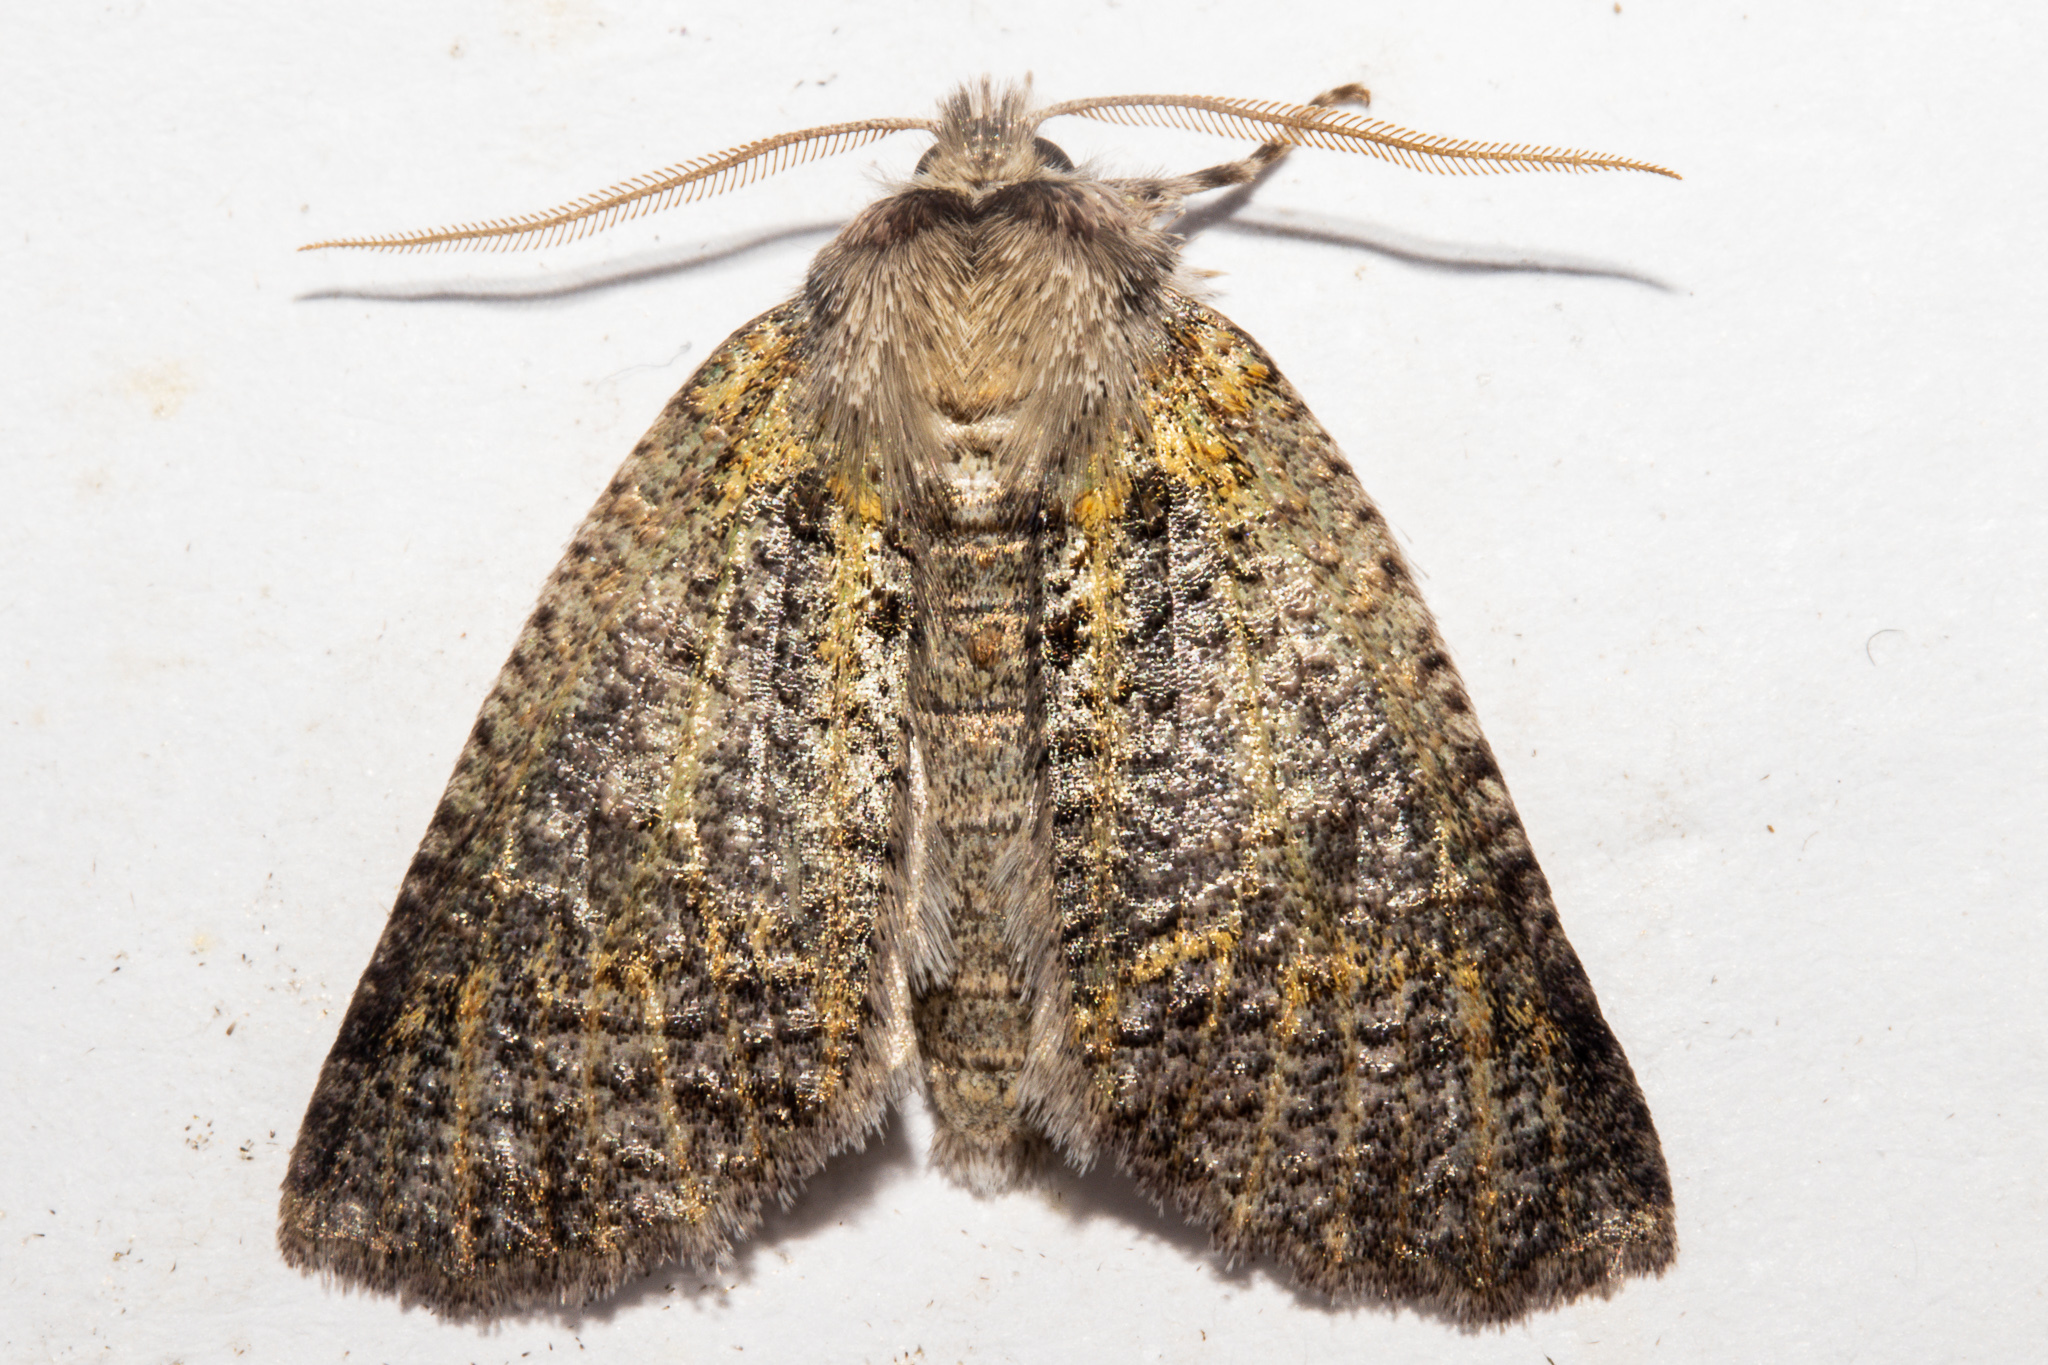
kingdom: Animalia
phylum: Arthropoda
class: Insecta
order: Lepidoptera
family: Geometridae
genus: Declana
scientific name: Declana floccosa
